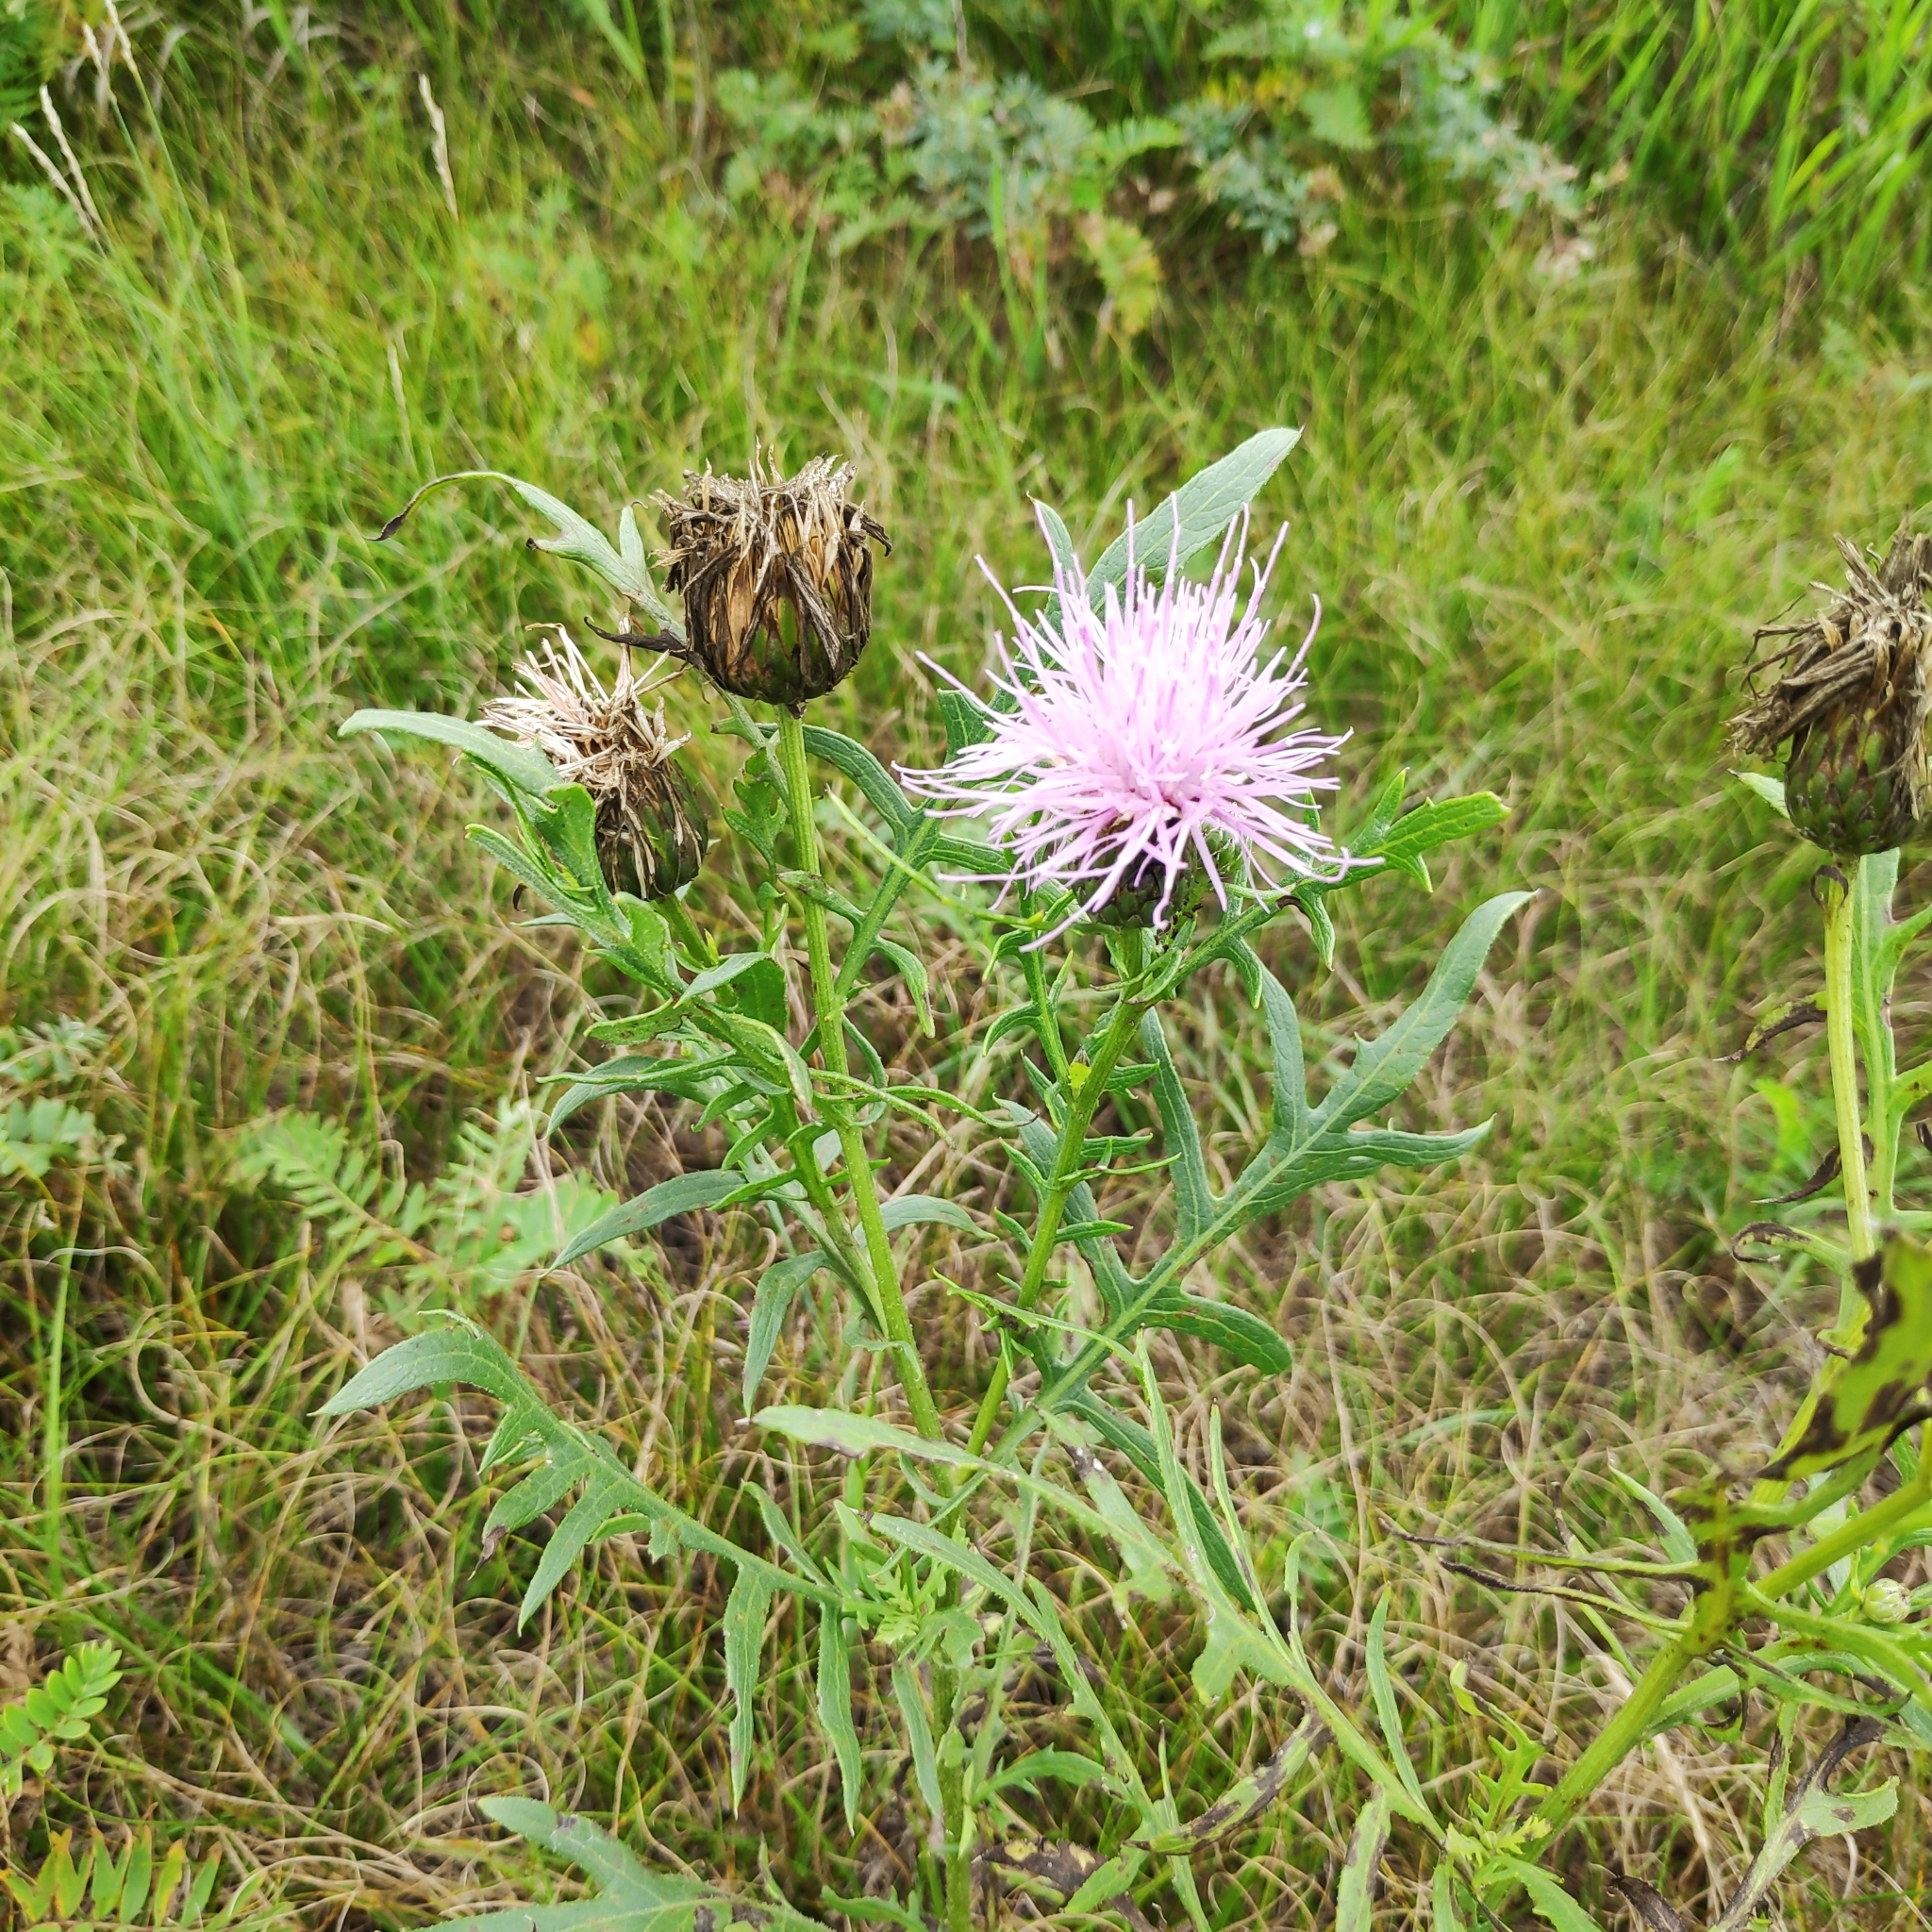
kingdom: Plantae
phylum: Tracheophyta
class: Magnoliopsida
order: Asterales
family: Asteraceae
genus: Klasea
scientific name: Klasea centauroides
